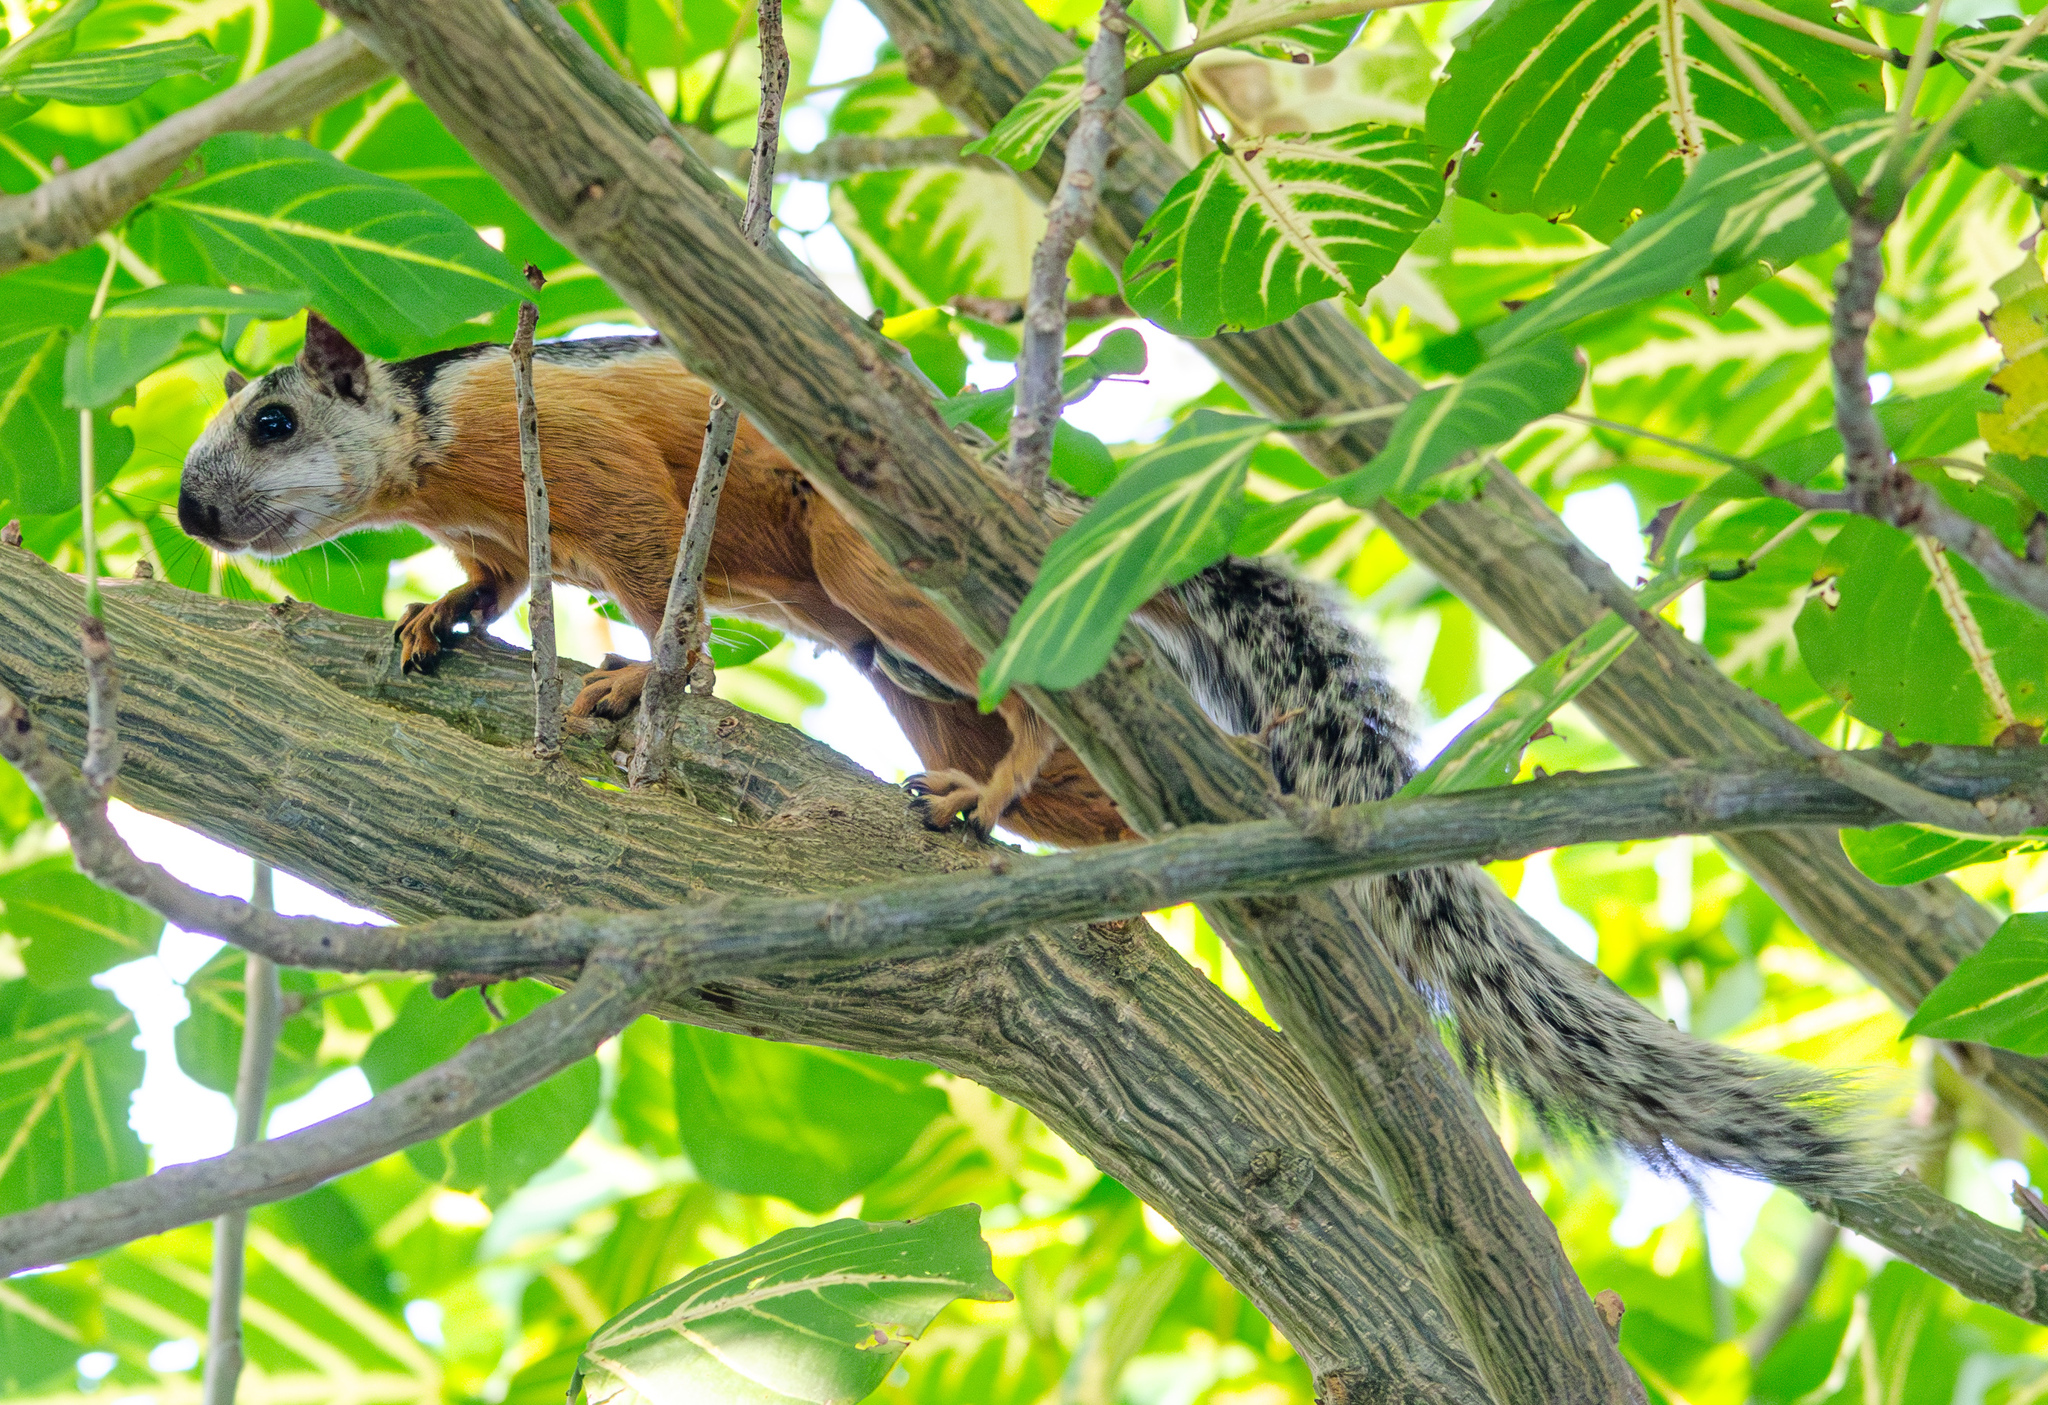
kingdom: Animalia
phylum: Chordata
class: Mammalia
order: Rodentia
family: Sciuridae
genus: Sciurus
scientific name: Sciurus variegatoides
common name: Variegated squirrel
